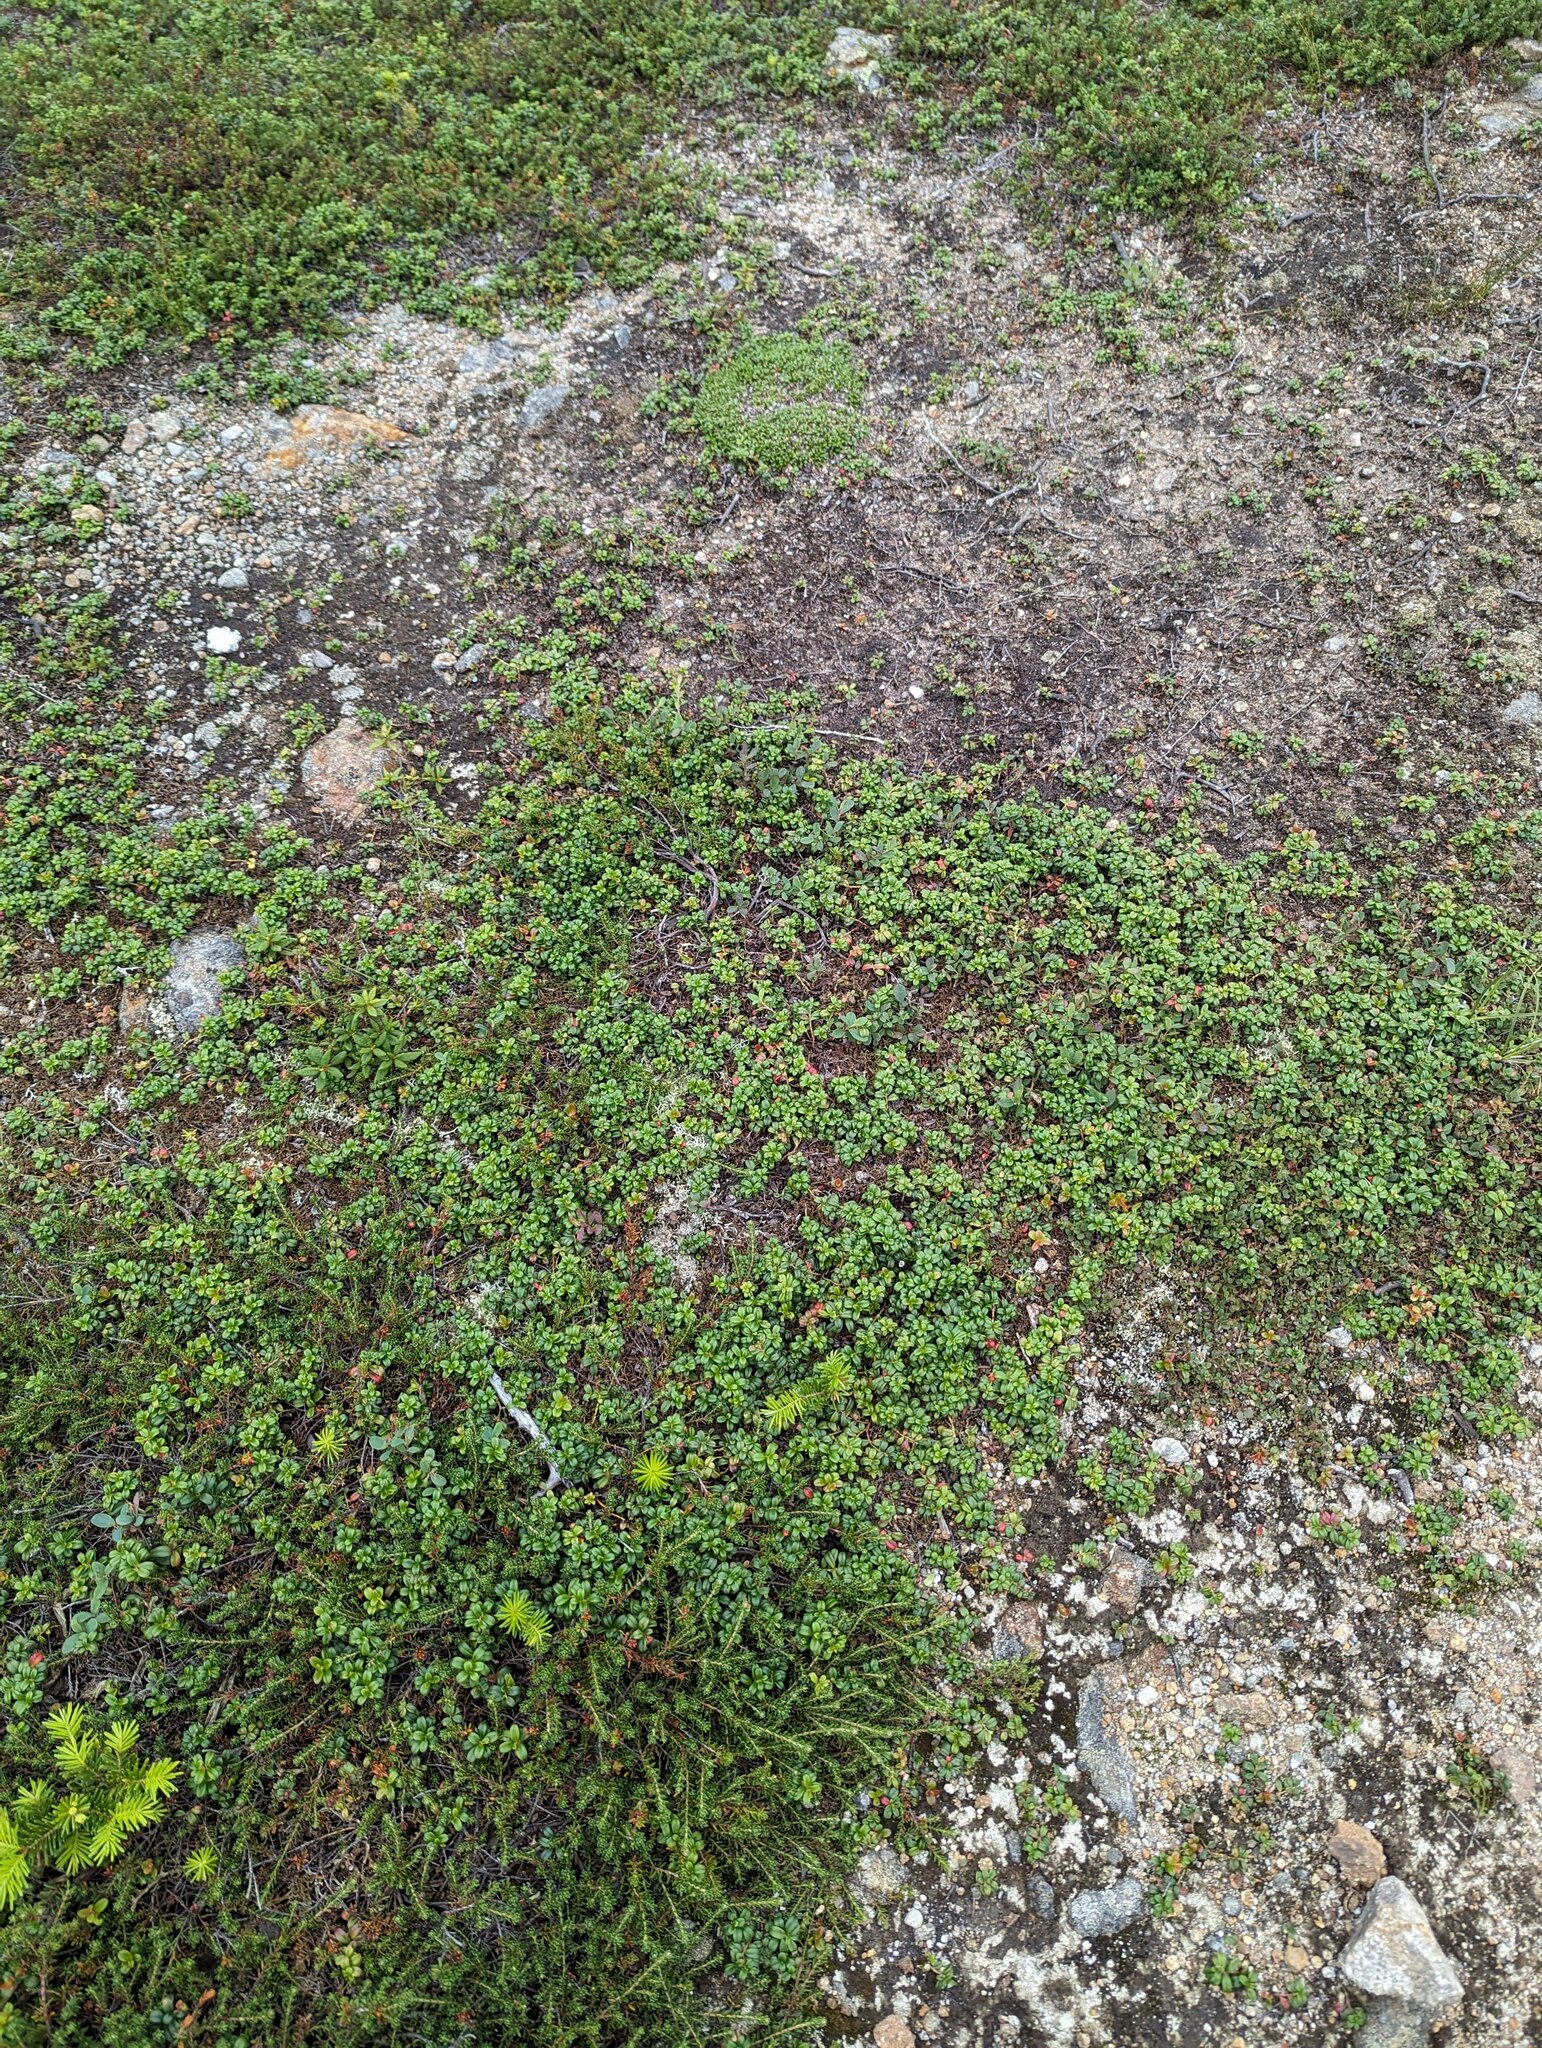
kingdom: Plantae
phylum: Tracheophyta
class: Magnoliopsida
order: Ericales
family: Ericaceae
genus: Vaccinium
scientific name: Vaccinium vitis-idaea
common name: Cowberry
